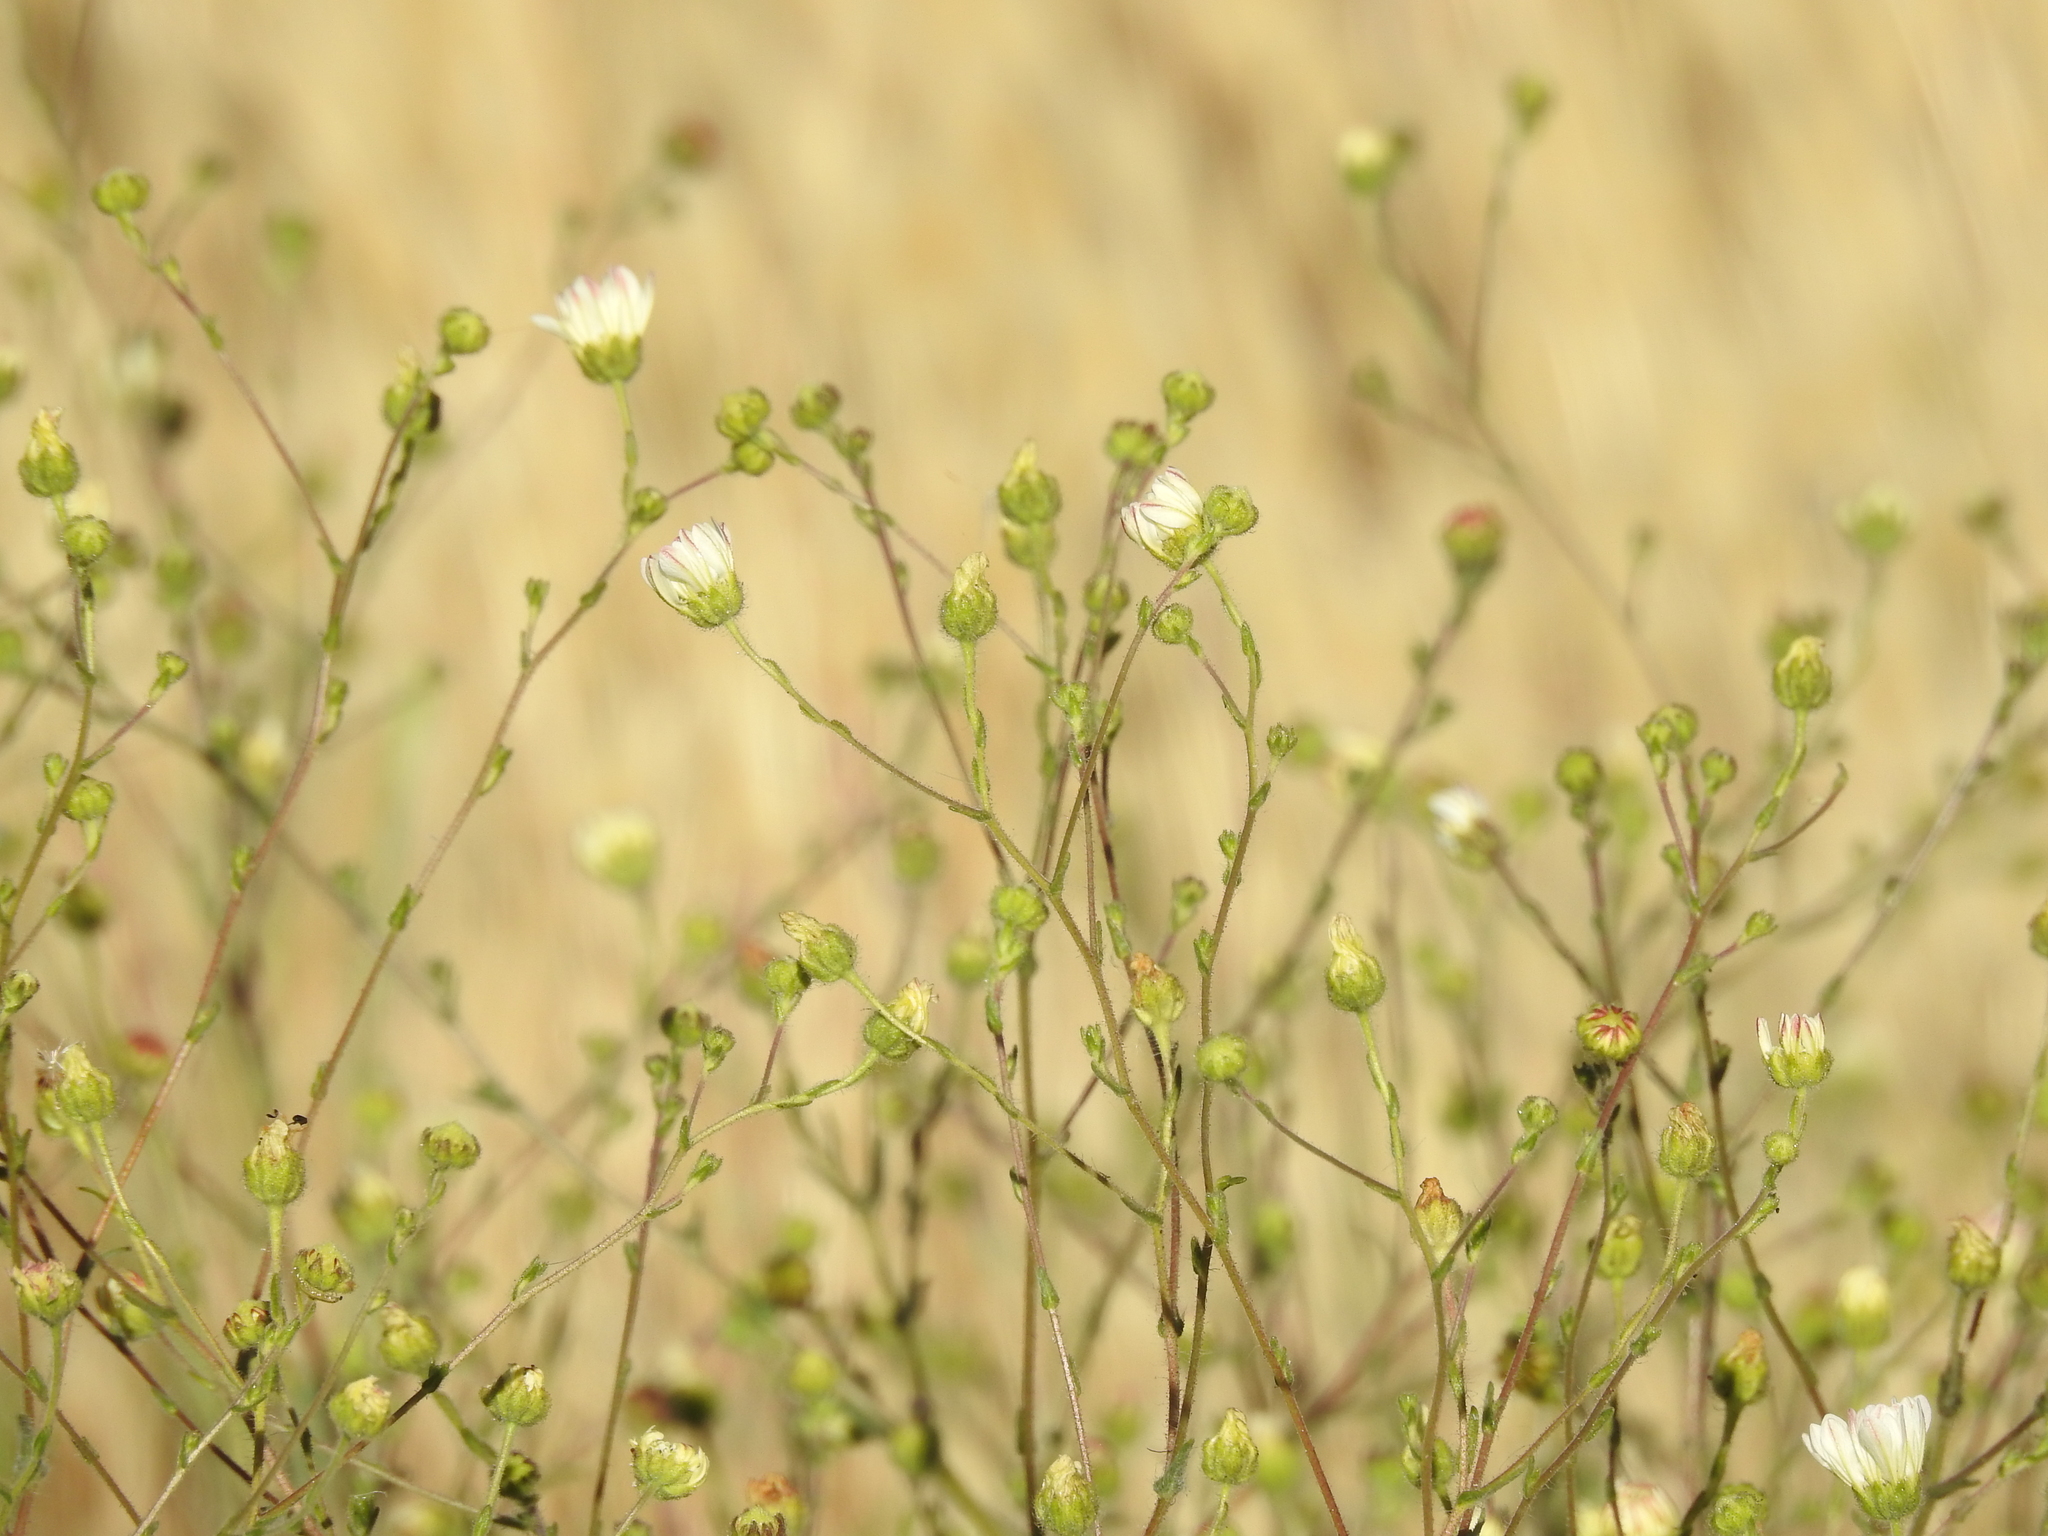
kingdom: Plantae
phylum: Tracheophyta
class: Magnoliopsida
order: Asterales
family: Asteraceae
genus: Hemizonia
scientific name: Hemizonia congesta
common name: Hayfield tarweed
